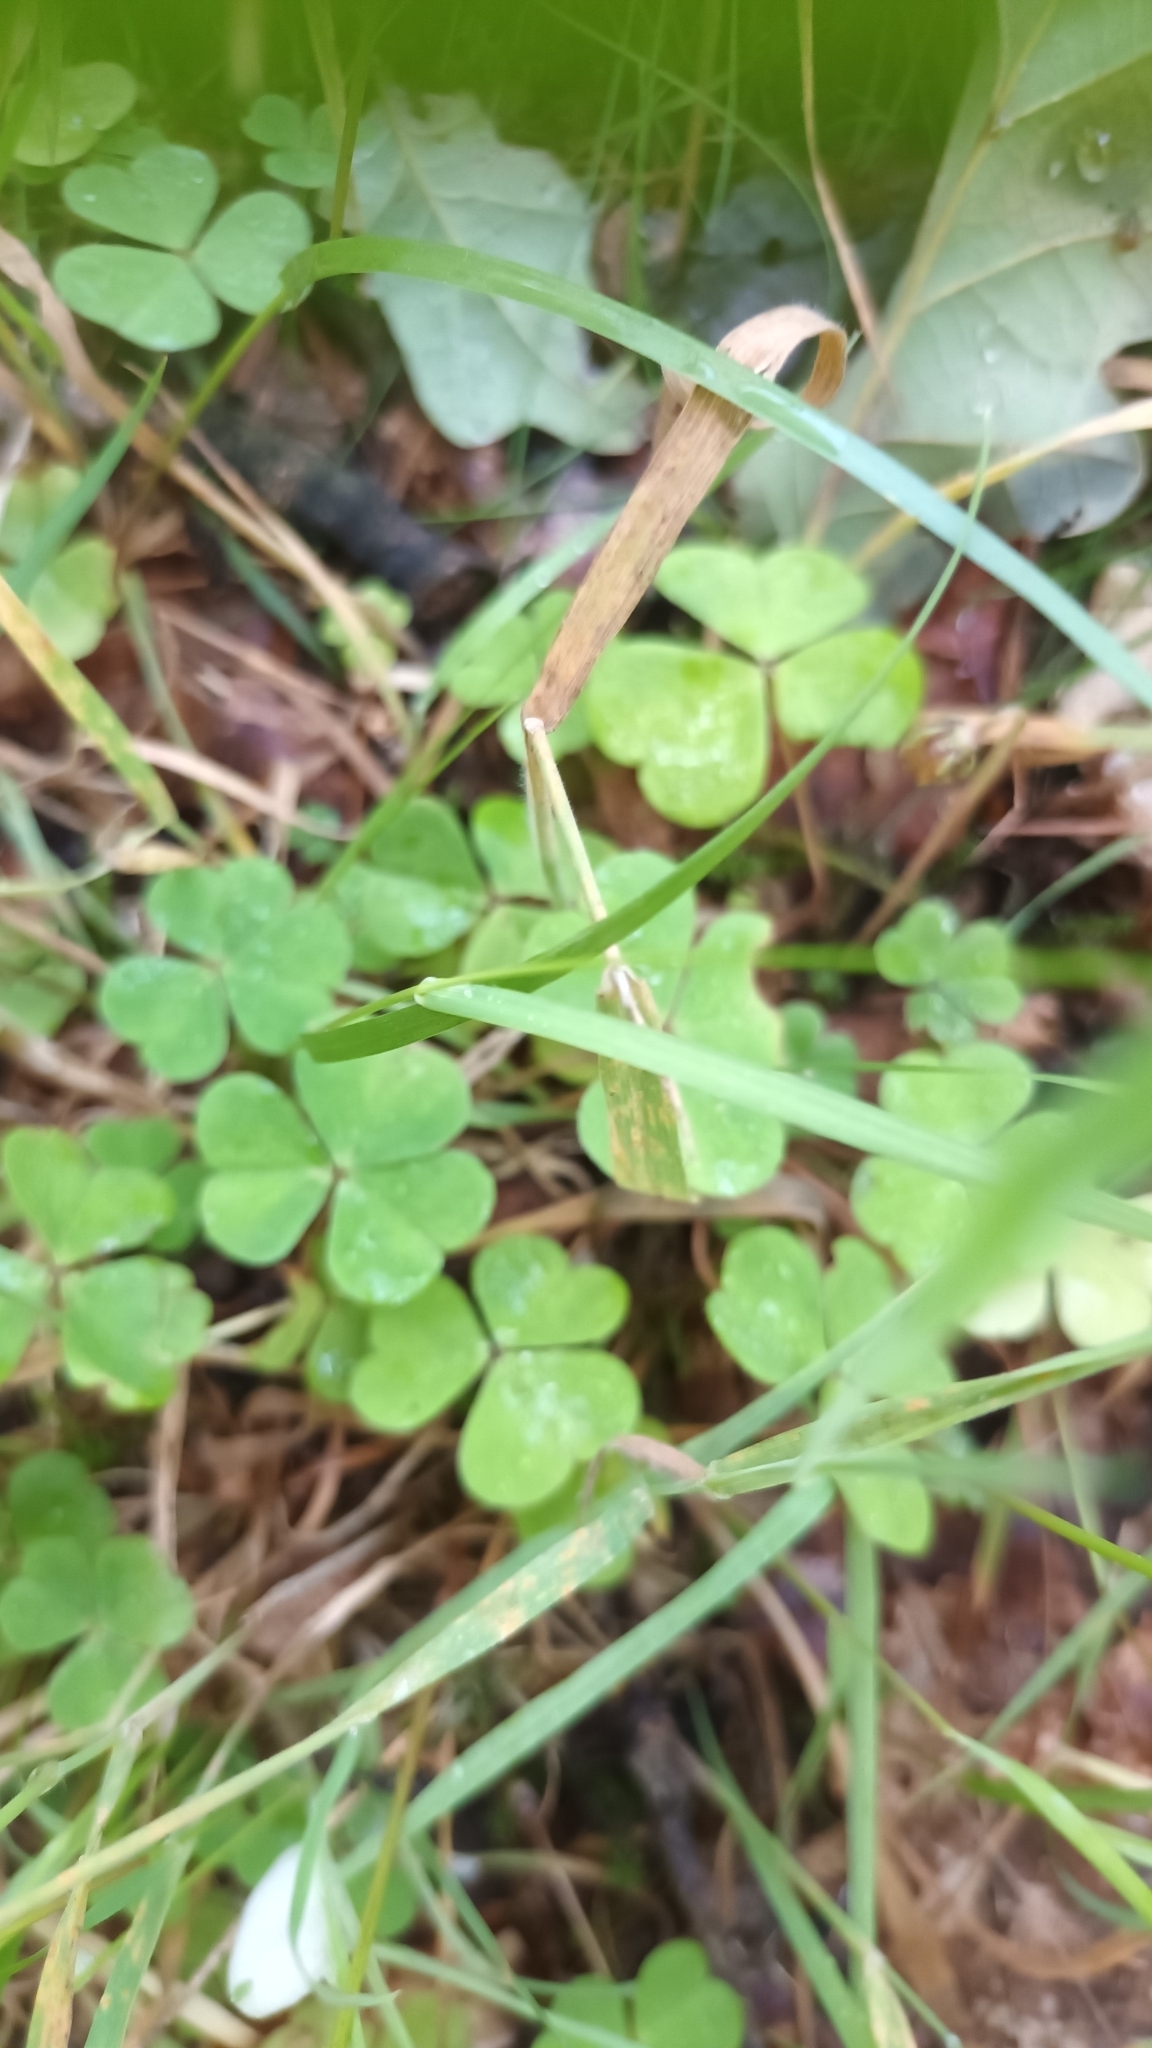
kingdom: Plantae
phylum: Tracheophyta
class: Magnoliopsida
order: Oxalidales
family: Oxalidaceae
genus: Oxalis
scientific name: Oxalis acetosella
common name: Wood-sorrel
